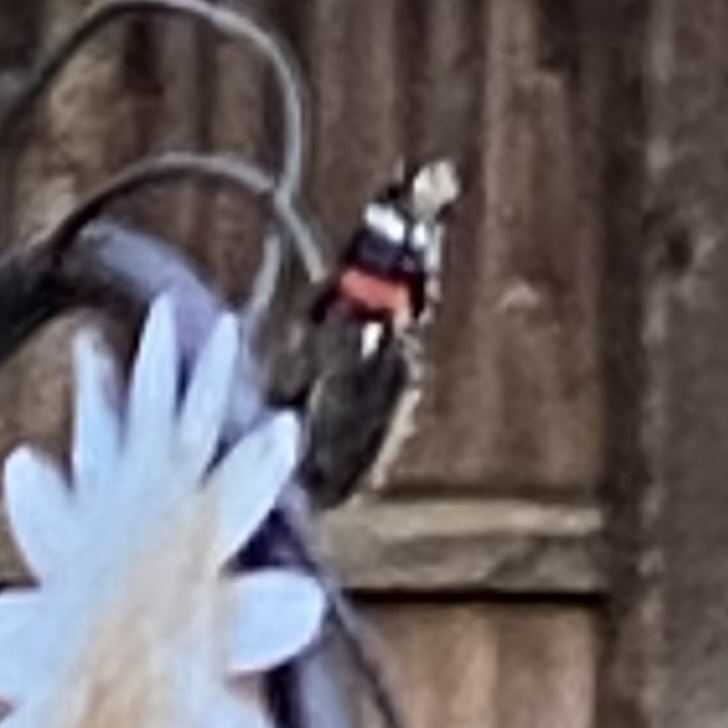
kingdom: Animalia
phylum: Arthropoda
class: Insecta
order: Lepidoptera
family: Nymphalidae
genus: Vanessa
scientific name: Vanessa atalanta
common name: Red admiral
